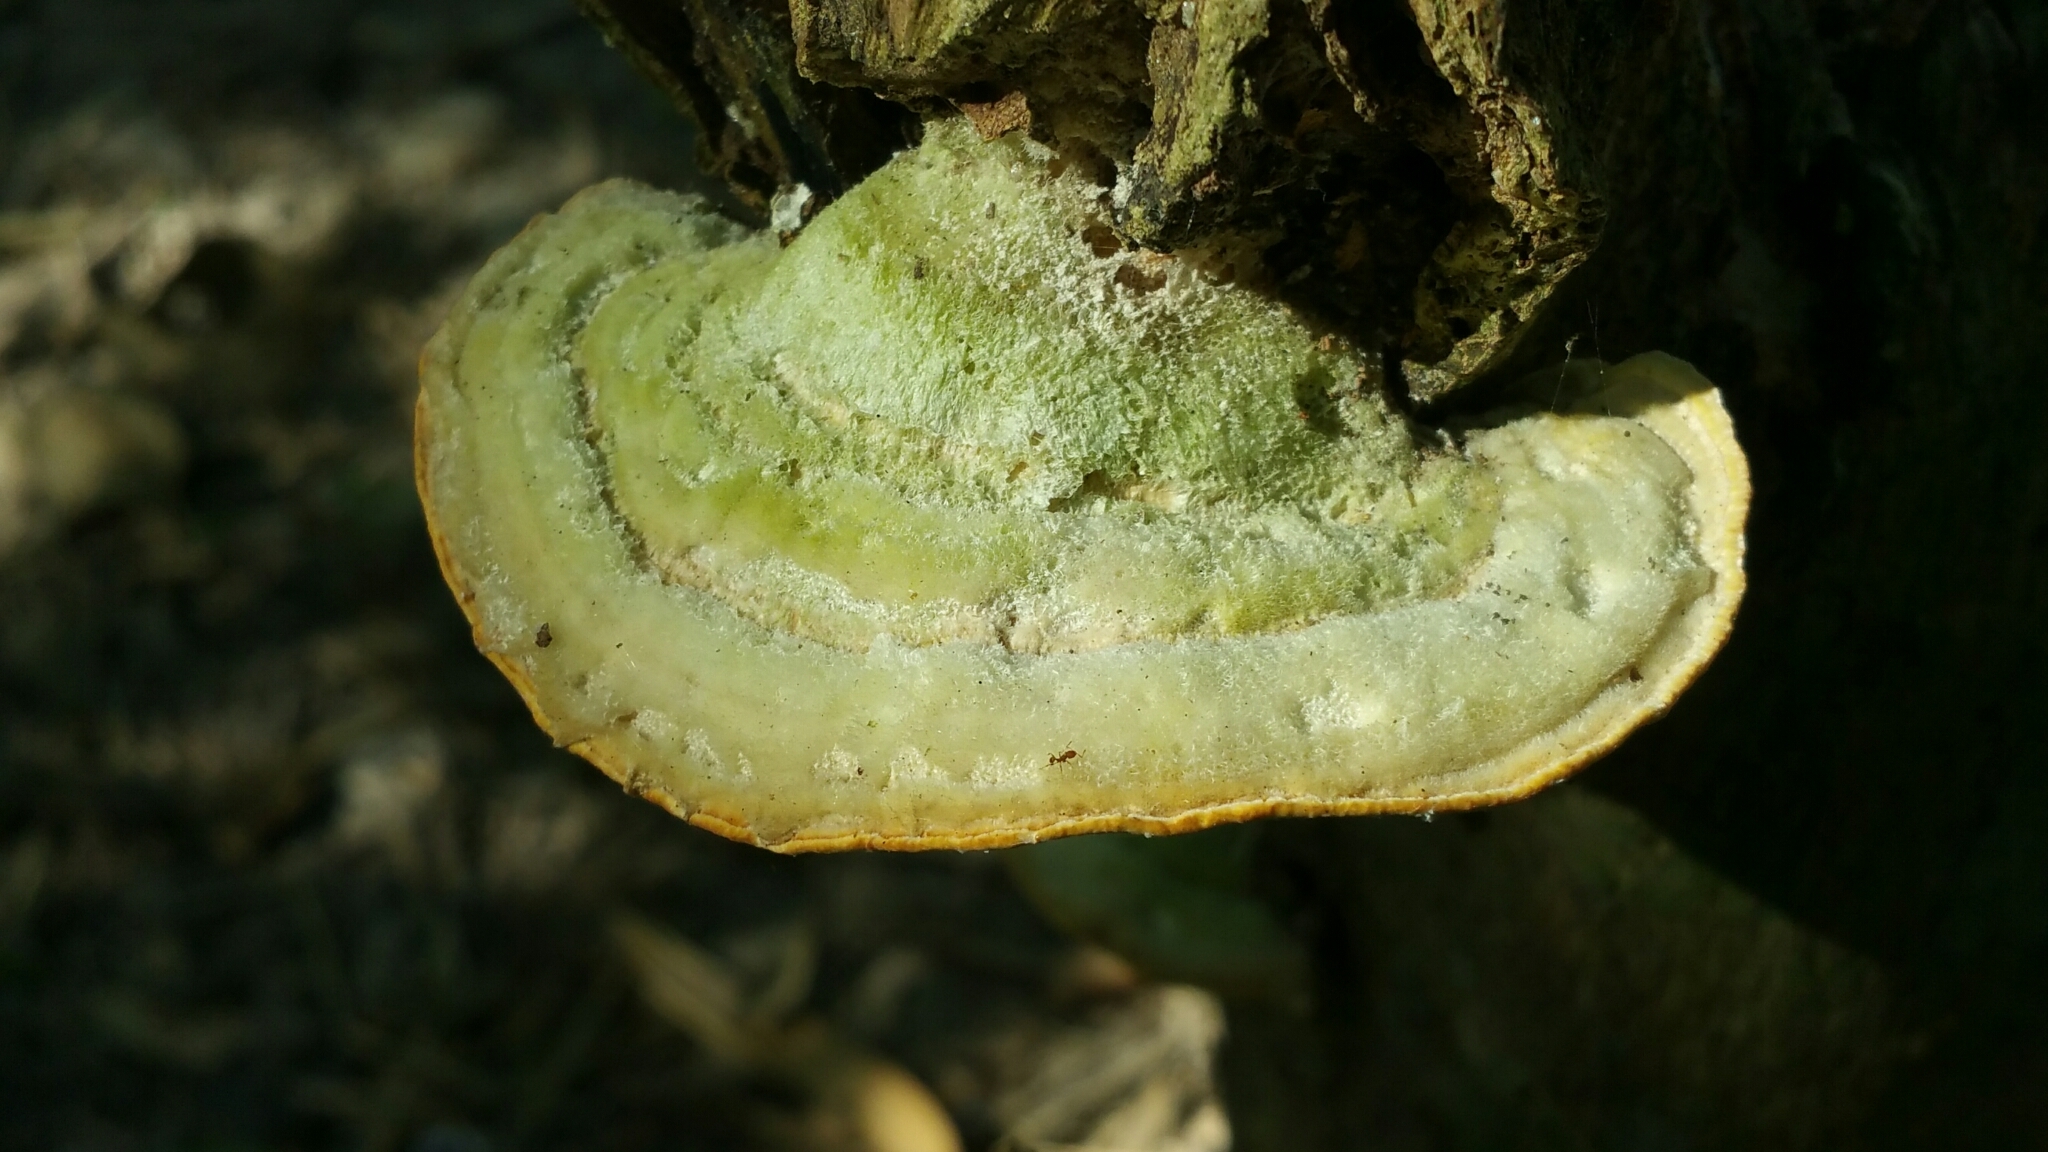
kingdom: Fungi
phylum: Basidiomycota
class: Agaricomycetes
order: Polyporales
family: Polyporaceae
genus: Trametes
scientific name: Trametes gibbosa
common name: Lumpy bracket
